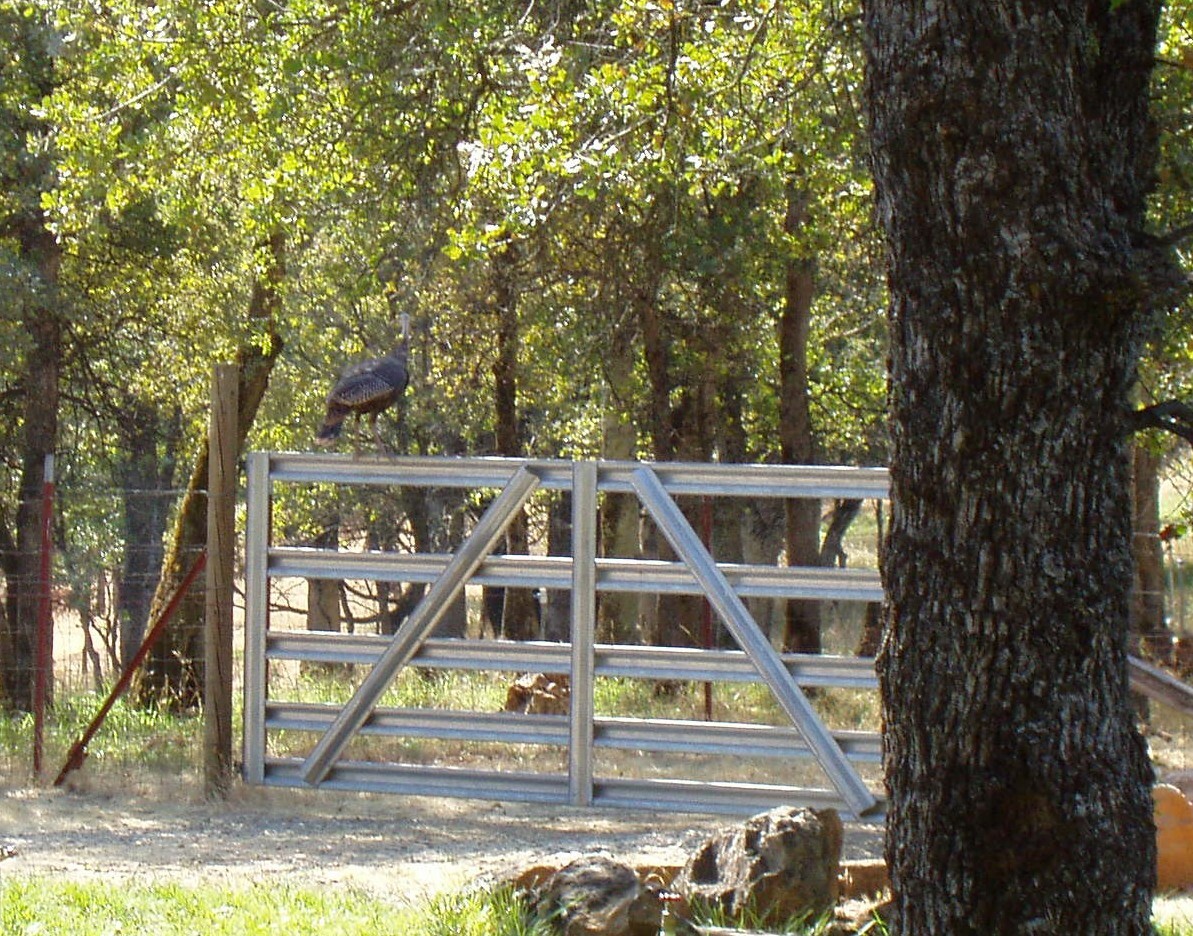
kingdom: Animalia
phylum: Chordata
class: Aves
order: Galliformes
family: Phasianidae
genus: Meleagris
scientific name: Meleagris gallopavo
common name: Wild turkey
